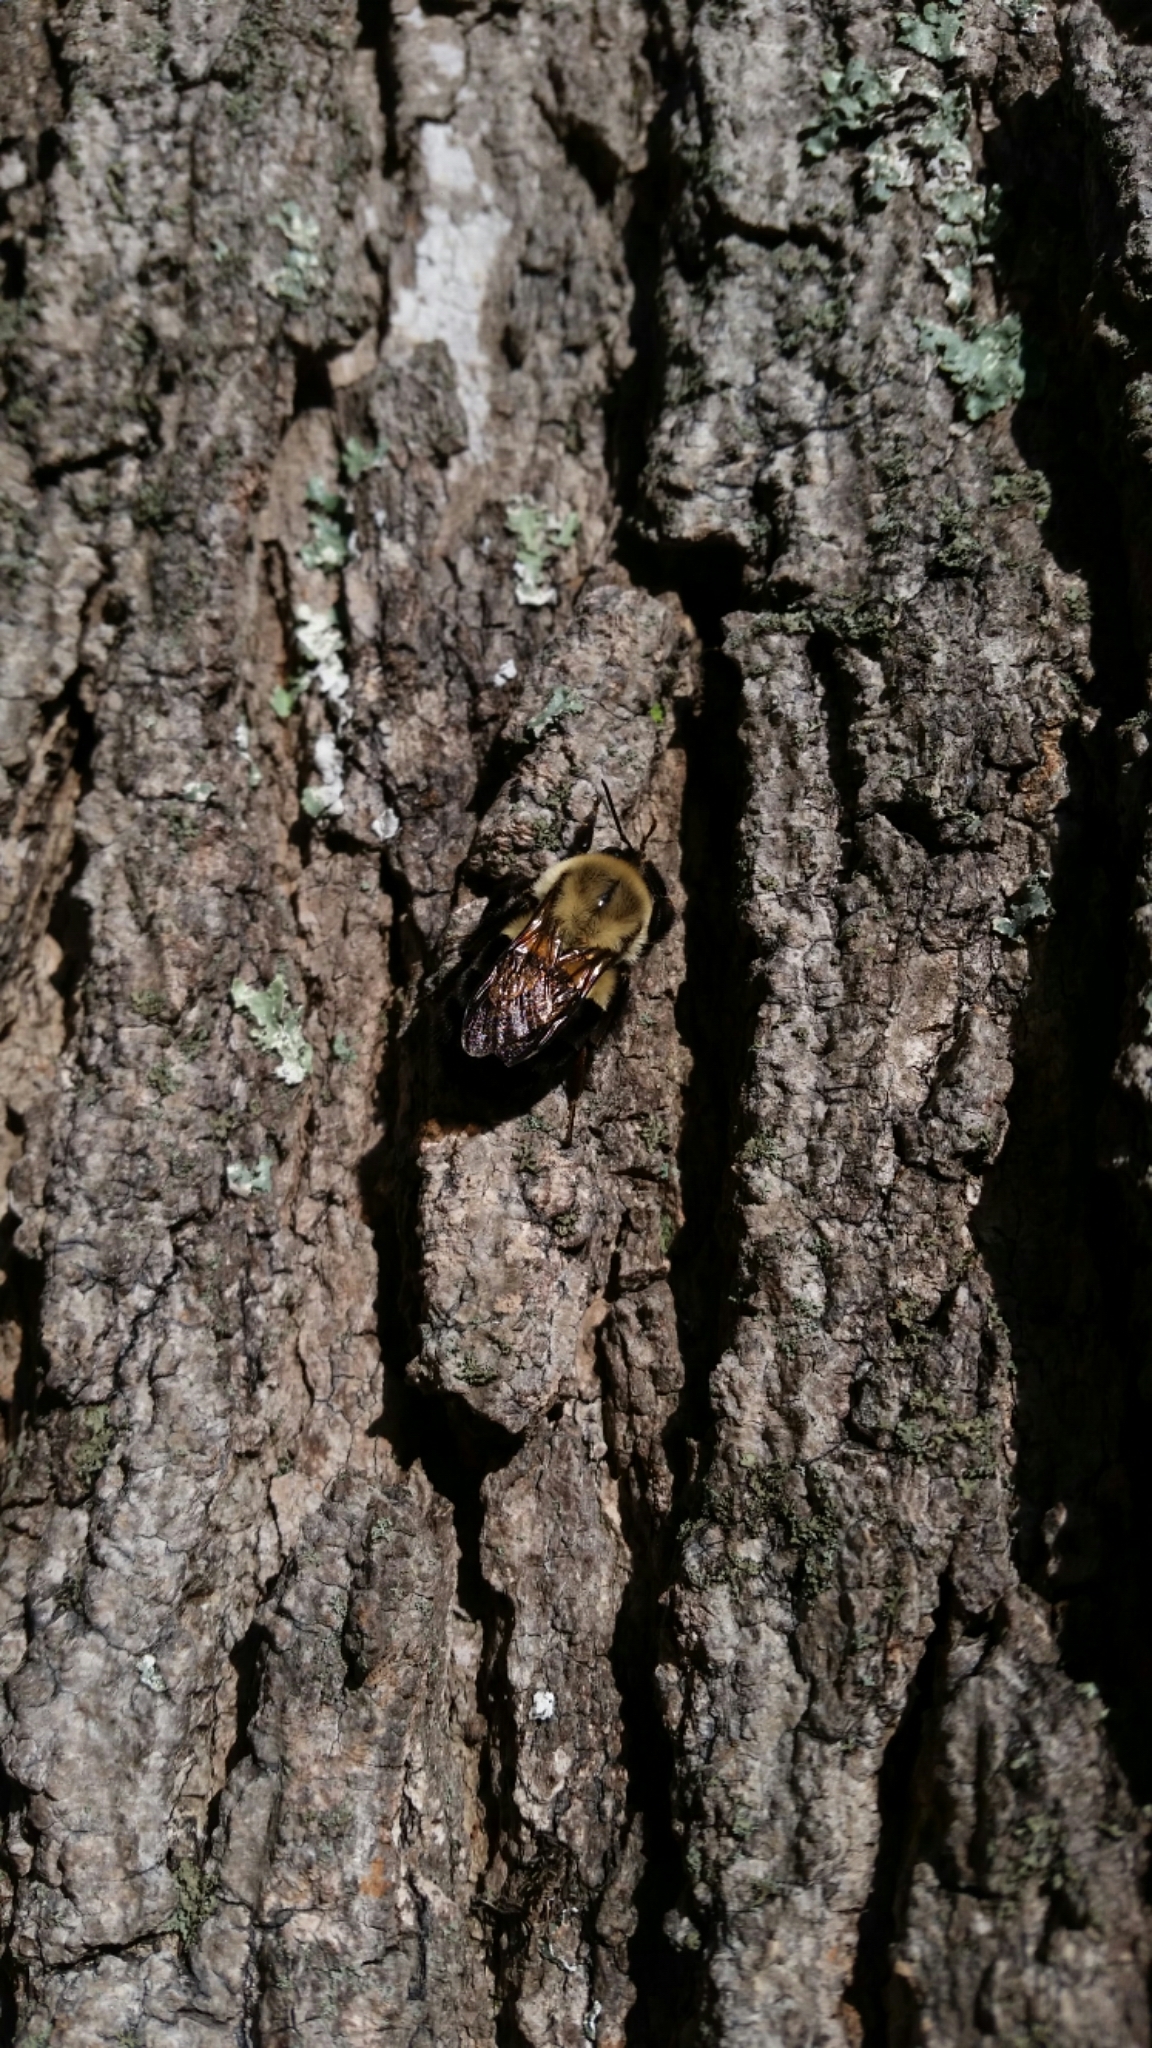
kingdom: Animalia
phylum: Arthropoda
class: Insecta
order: Hymenoptera
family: Apidae
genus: Bombus
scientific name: Bombus impatiens
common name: Common eastern bumble bee
